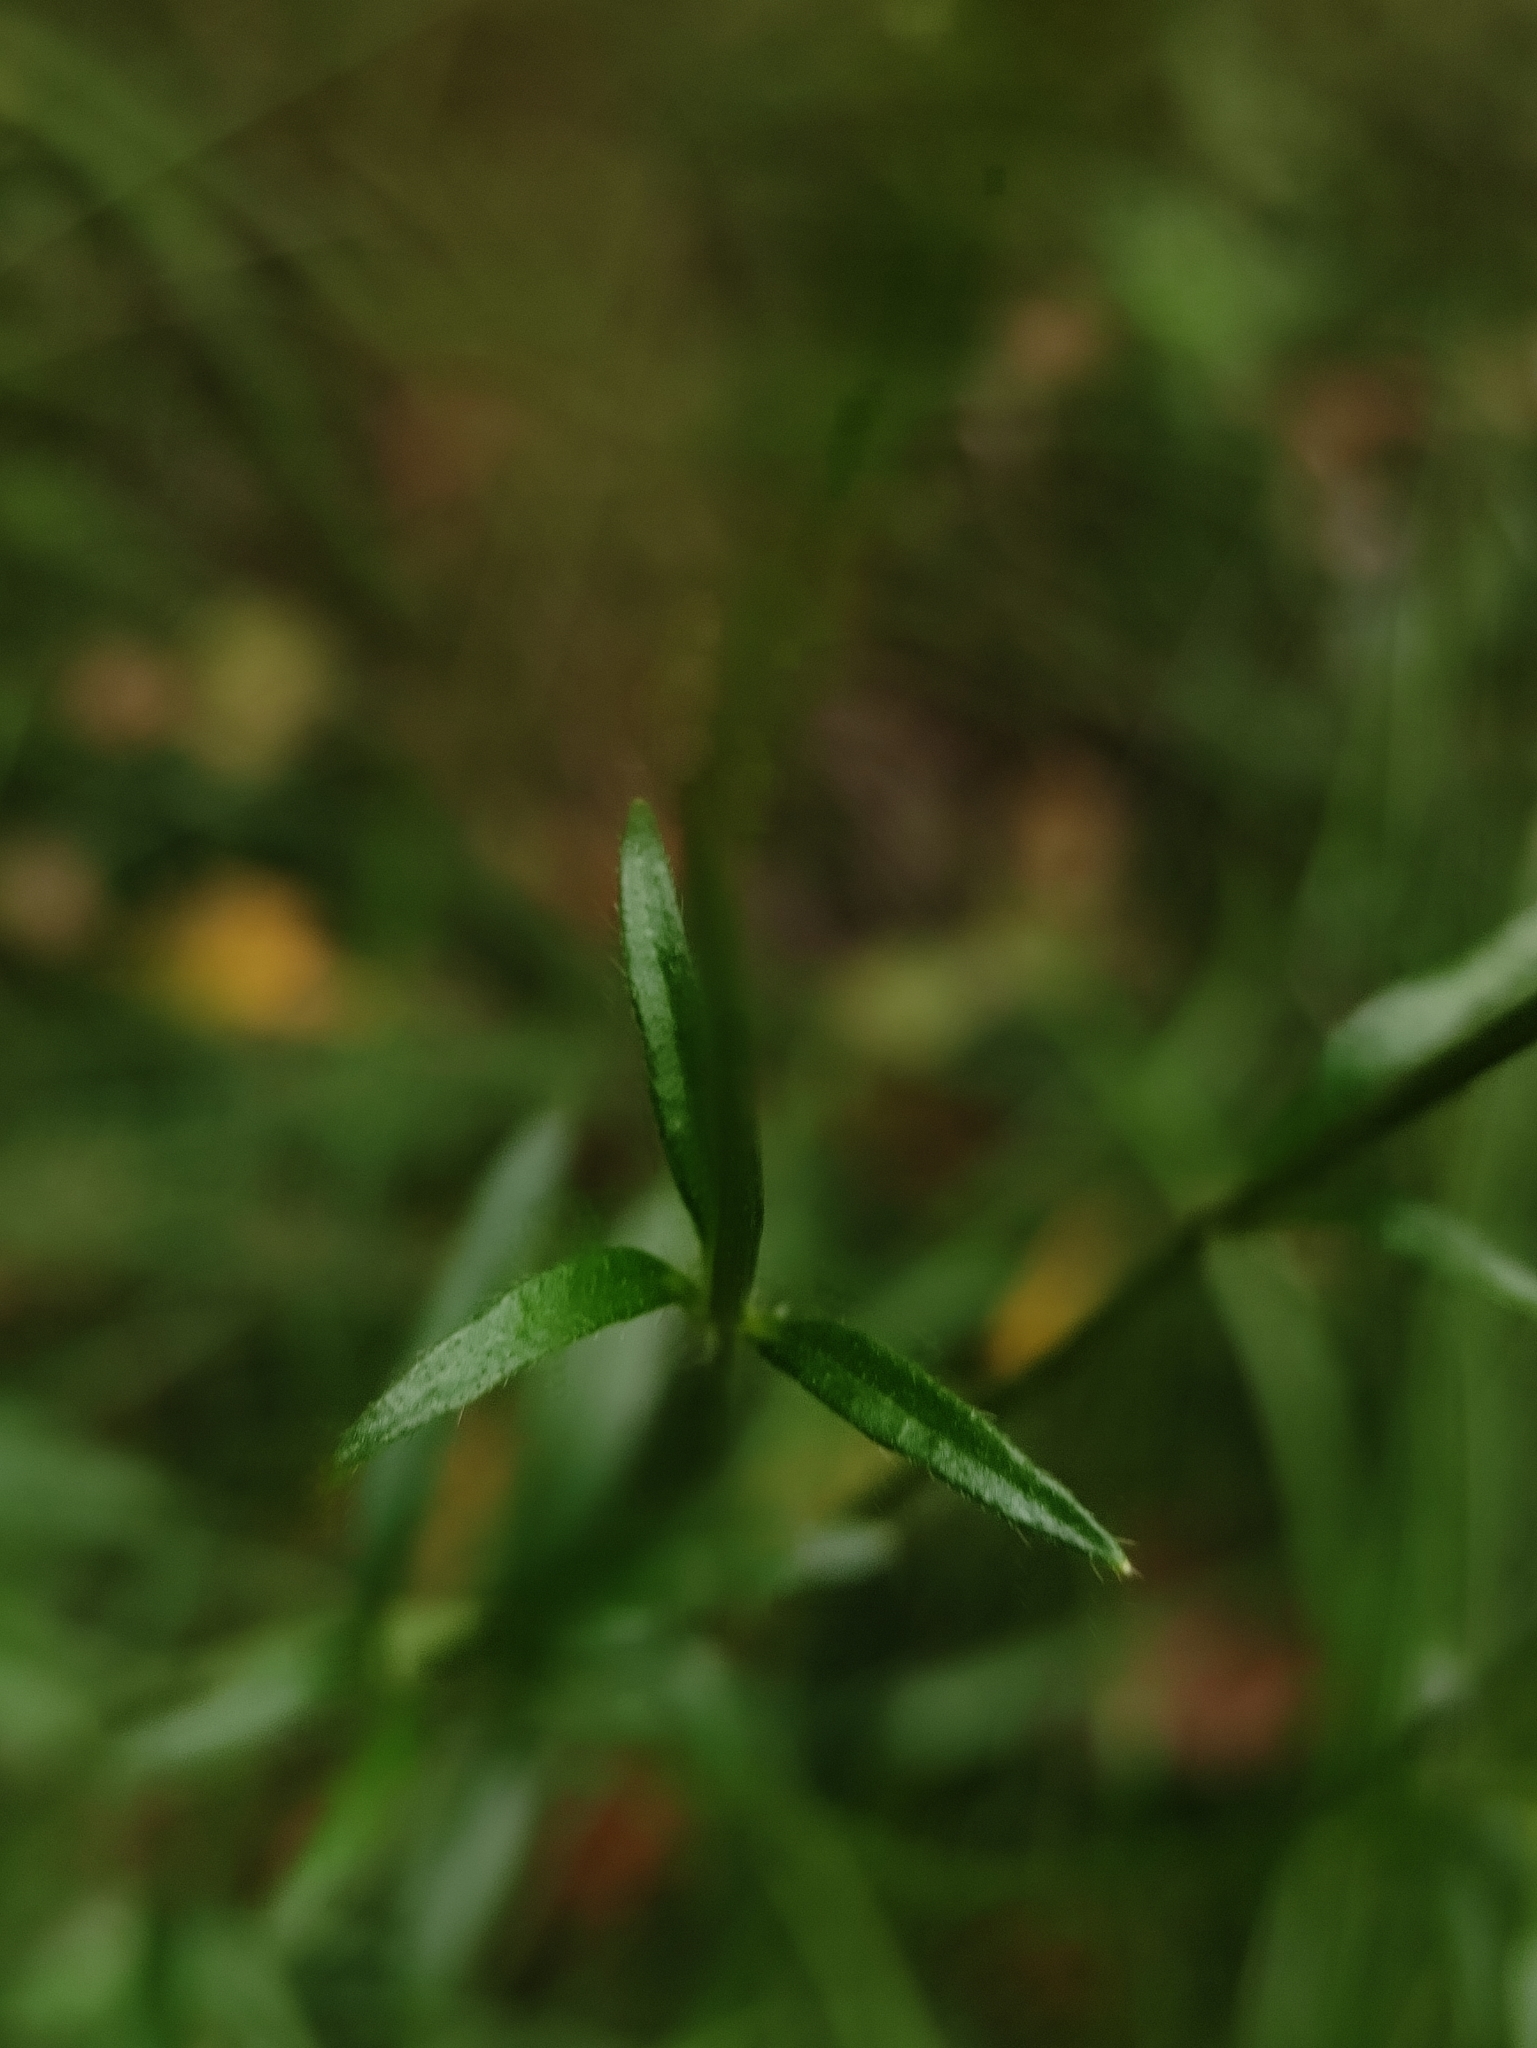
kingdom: Plantae
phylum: Tracheophyta
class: Magnoliopsida
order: Ranunculales
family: Ranunculaceae
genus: Ranunculus
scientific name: Ranunculus polyanthemos
